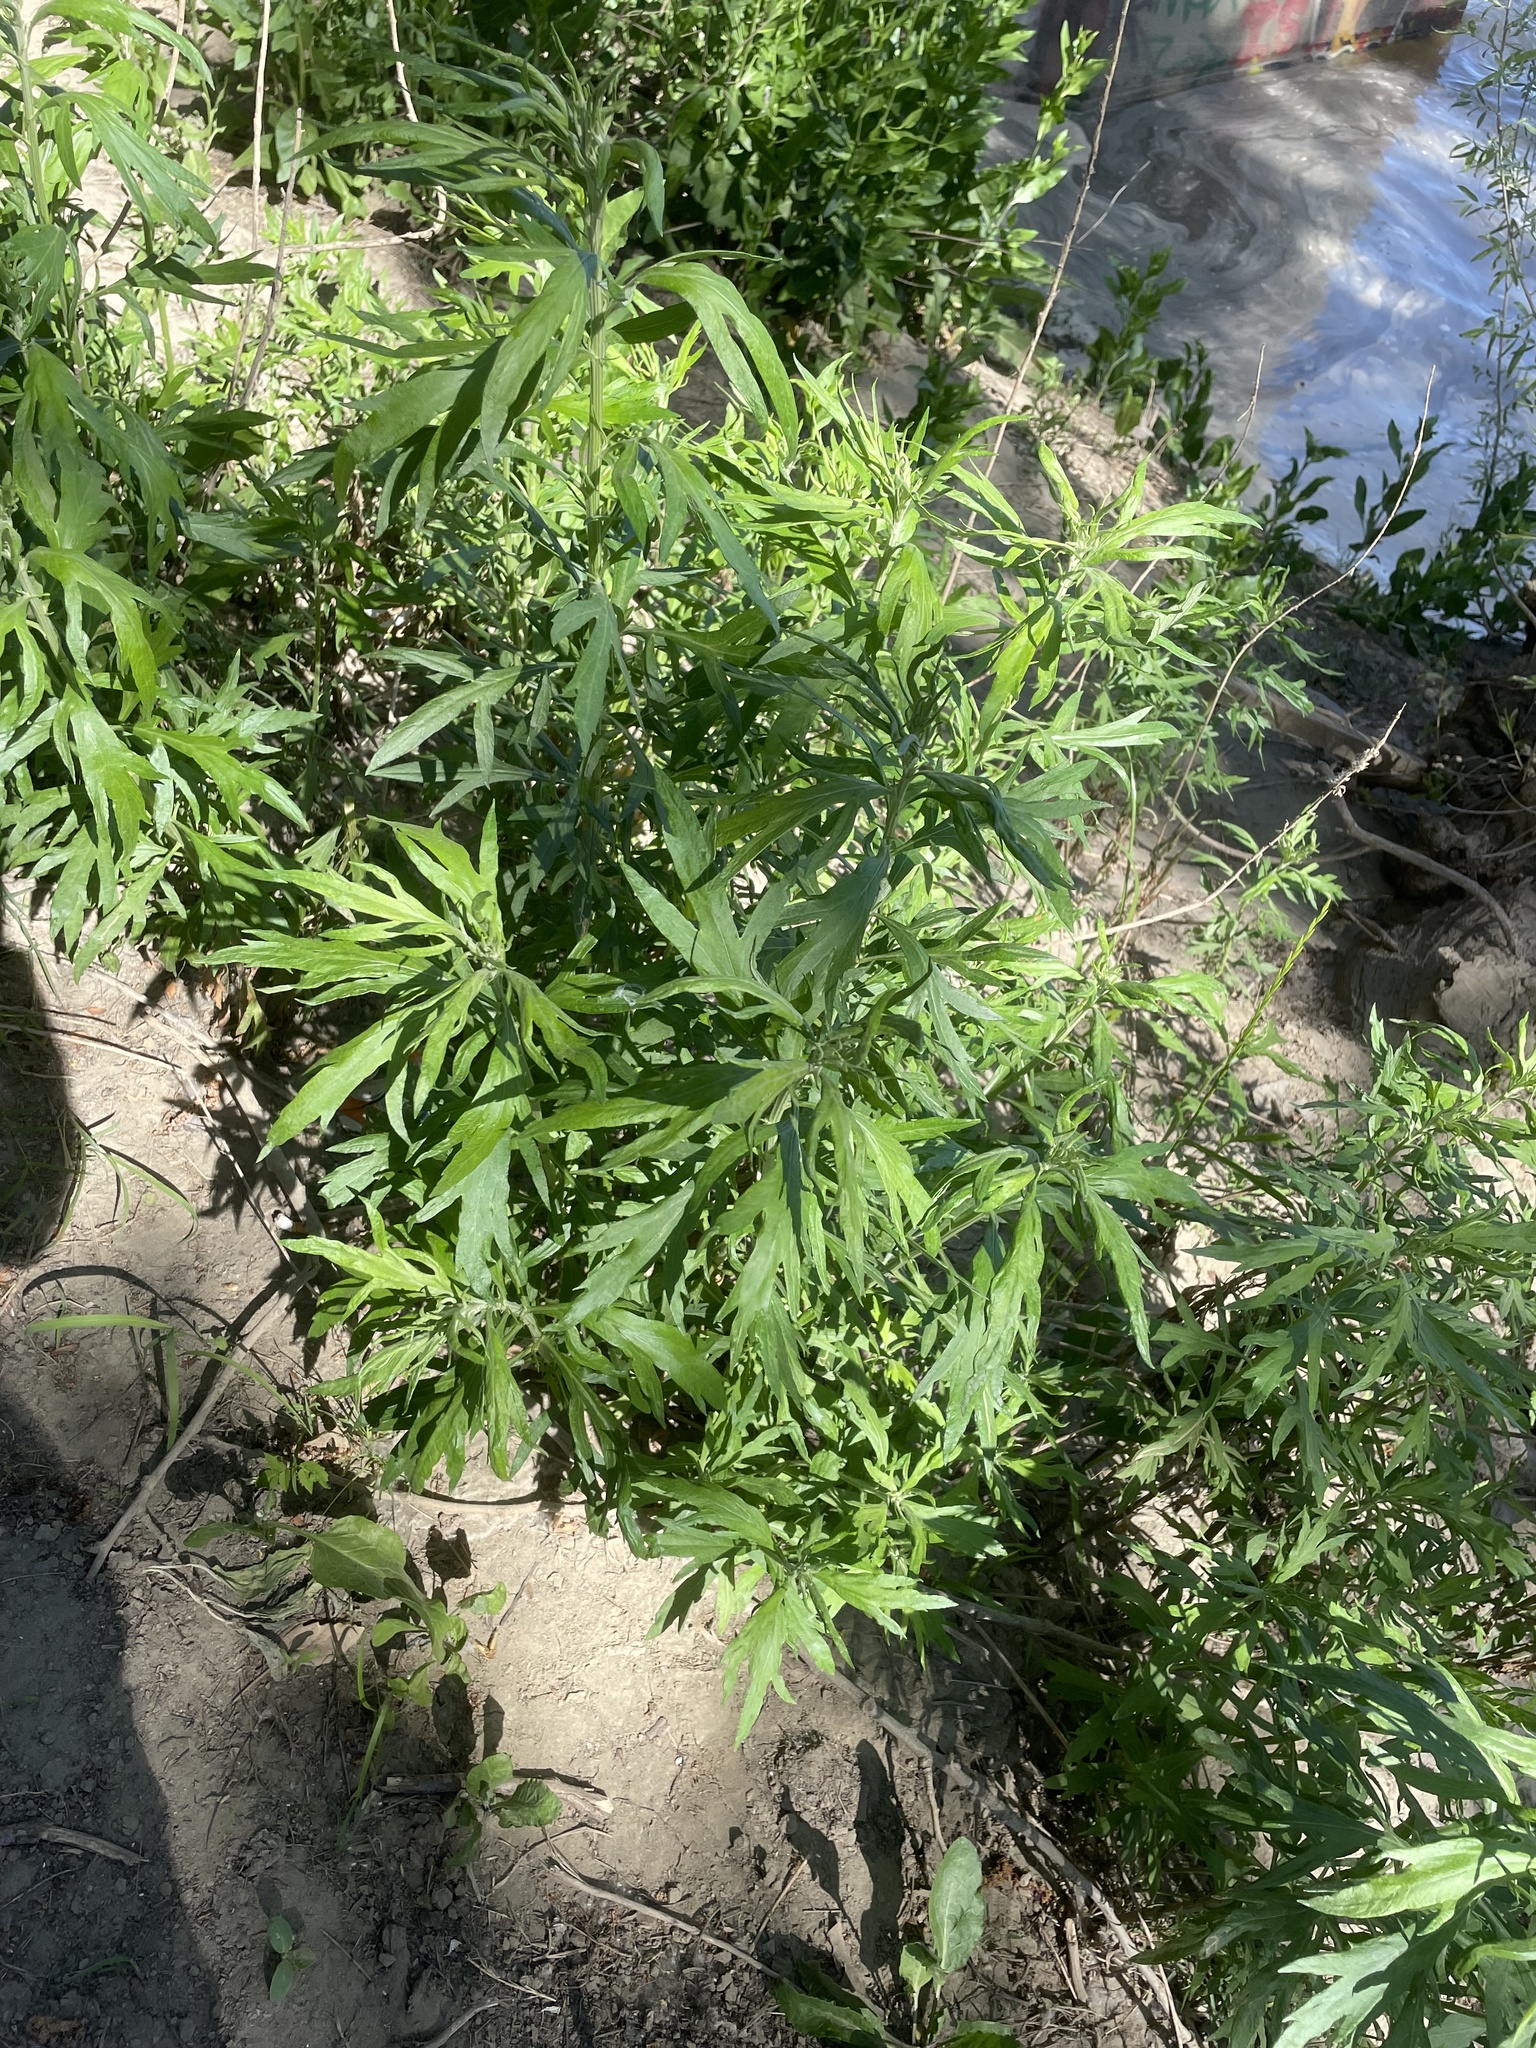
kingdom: Plantae
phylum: Tracheophyta
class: Magnoliopsida
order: Asterales
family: Asteraceae
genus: Artemisia
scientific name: Artemisia douglasiana
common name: Northwest mugwort
